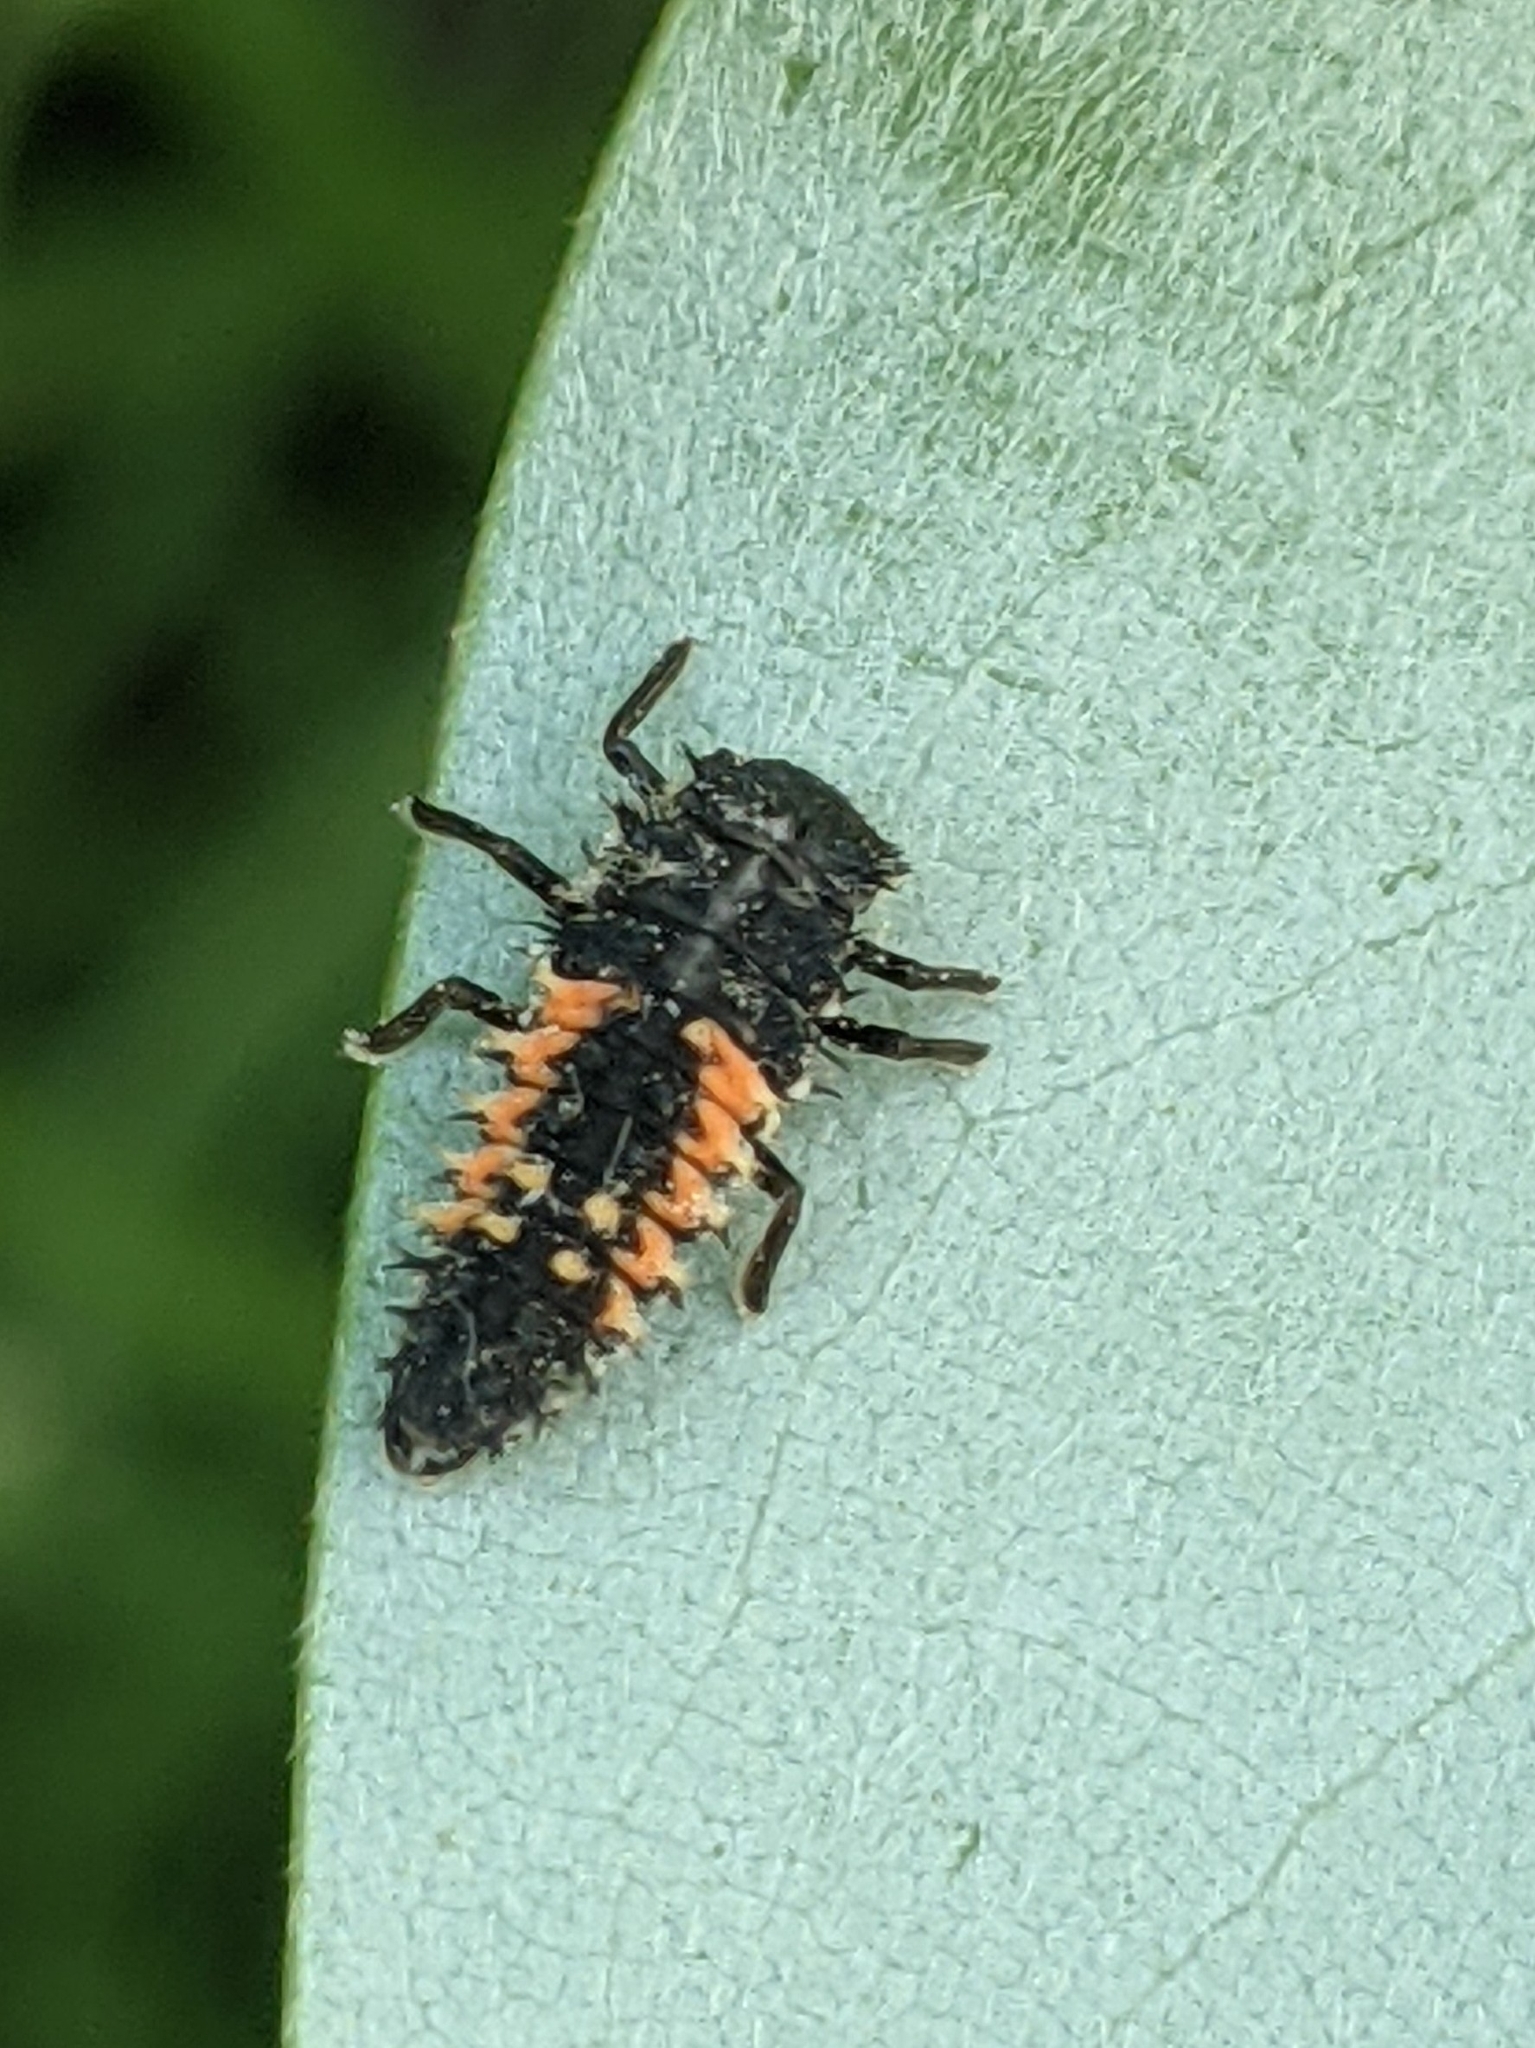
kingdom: Animalia
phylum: Arthropoda
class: Insecta
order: Coleoptera
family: Coccinellidae
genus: Harmonia
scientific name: Harmonia axyridis
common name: Harlequin ladybird
